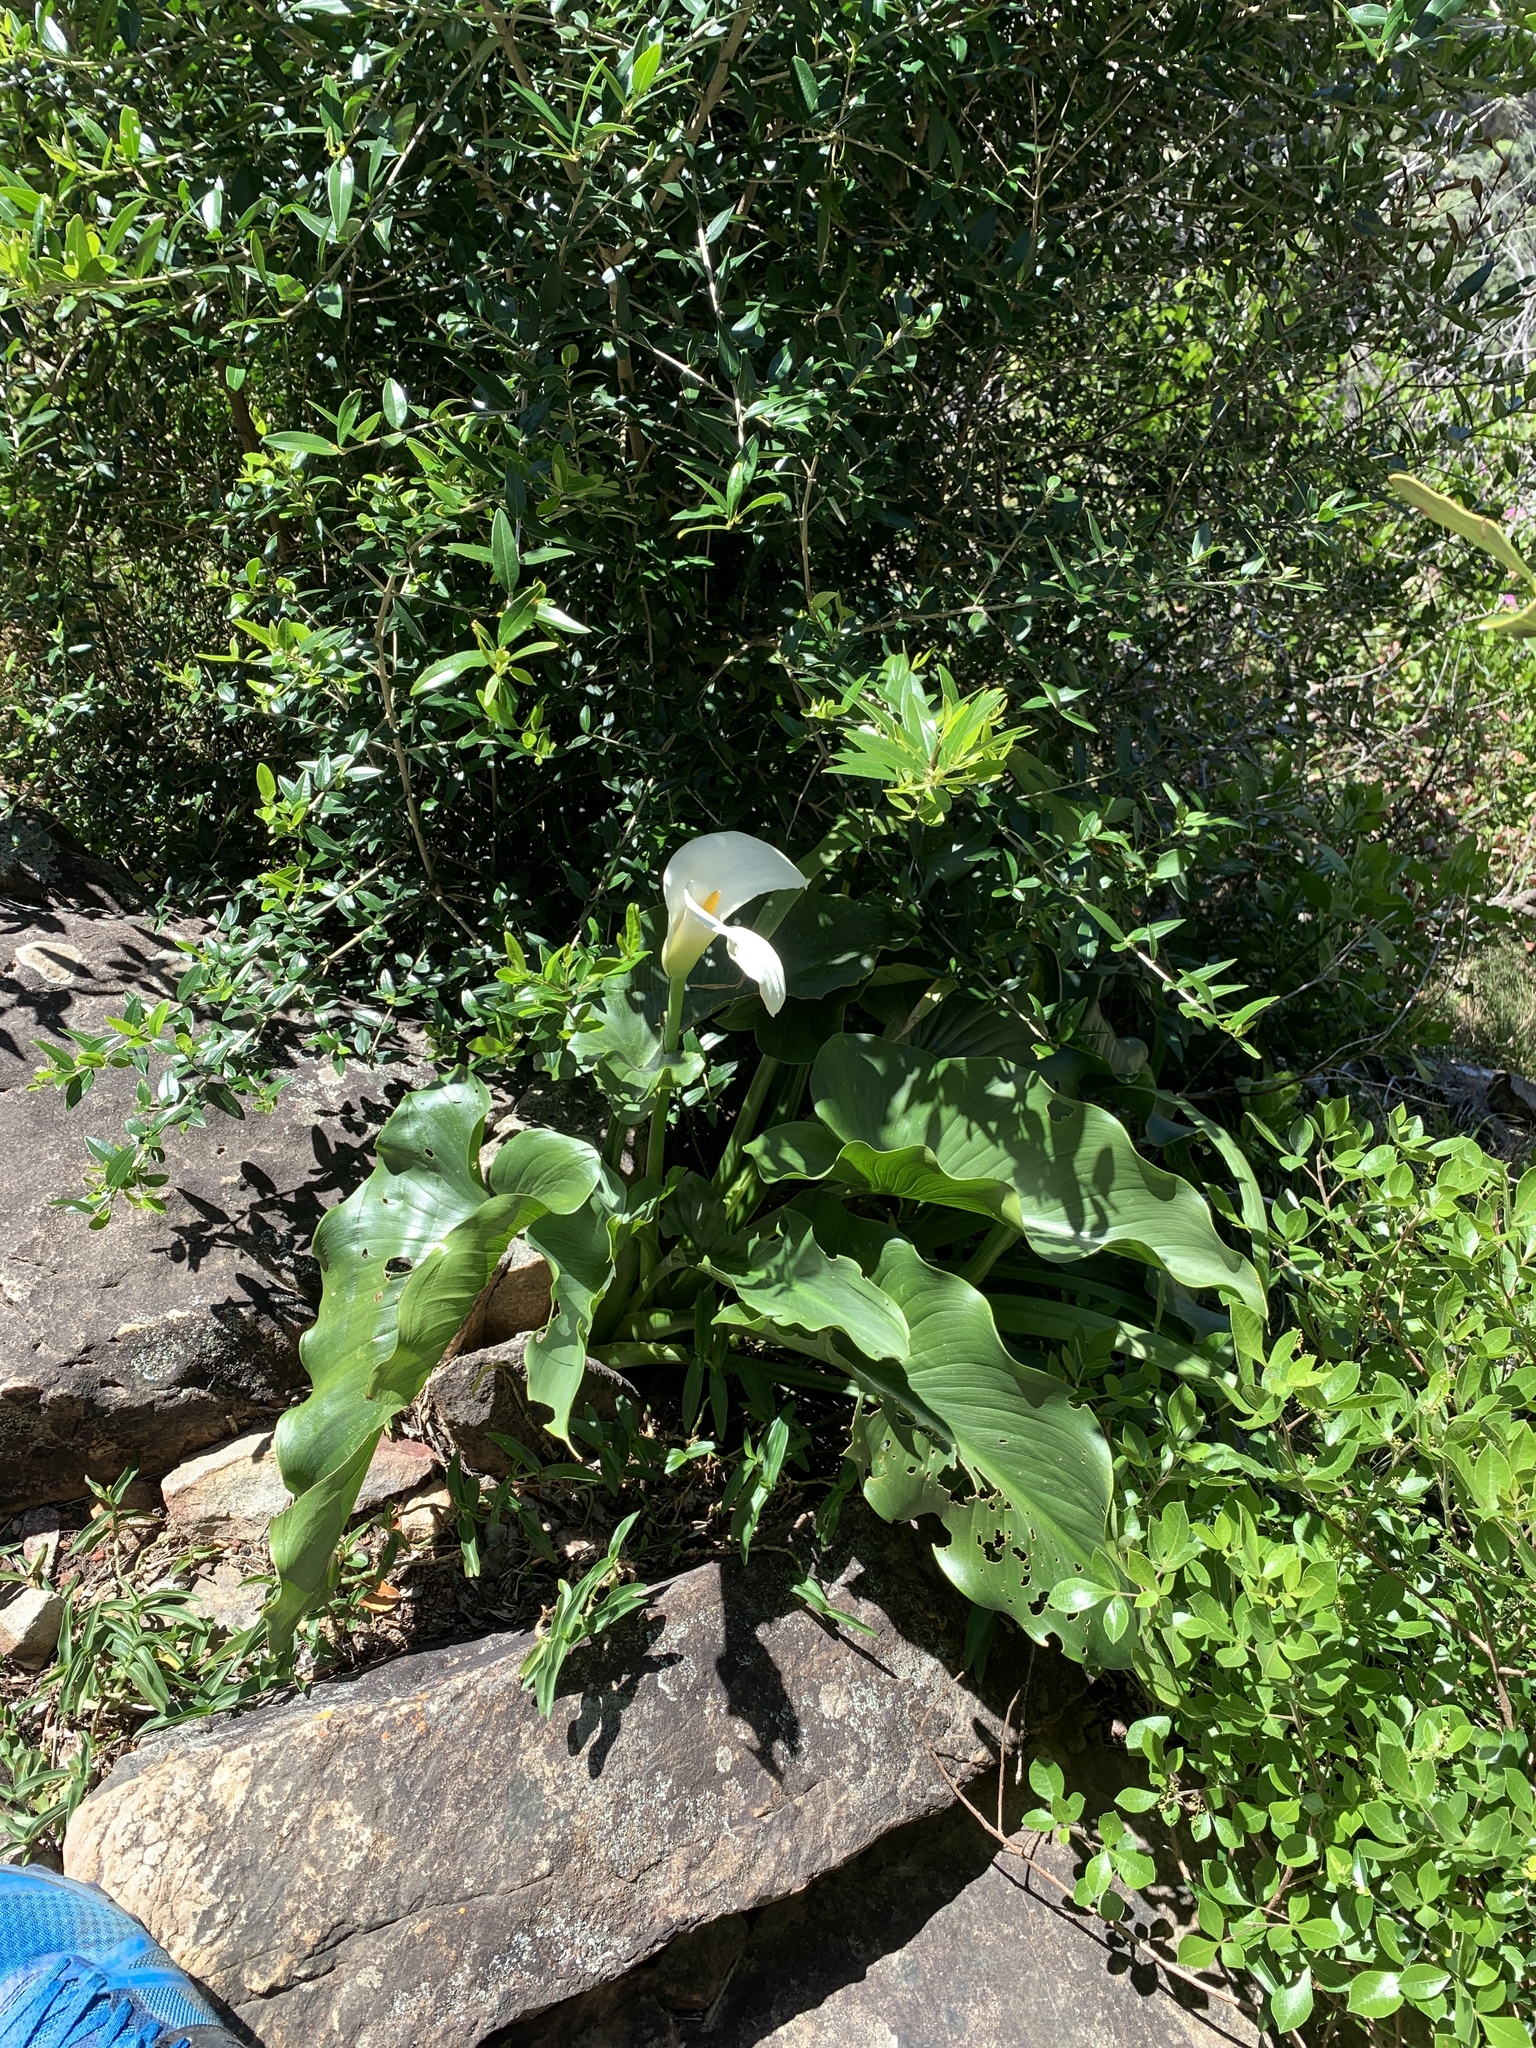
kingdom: Plantae
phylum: Tracheophyta
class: Liliopsida
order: Alismatales
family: Araceae
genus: Zantedeschia
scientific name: Zantedeschia aethiopica
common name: Altar-lily
